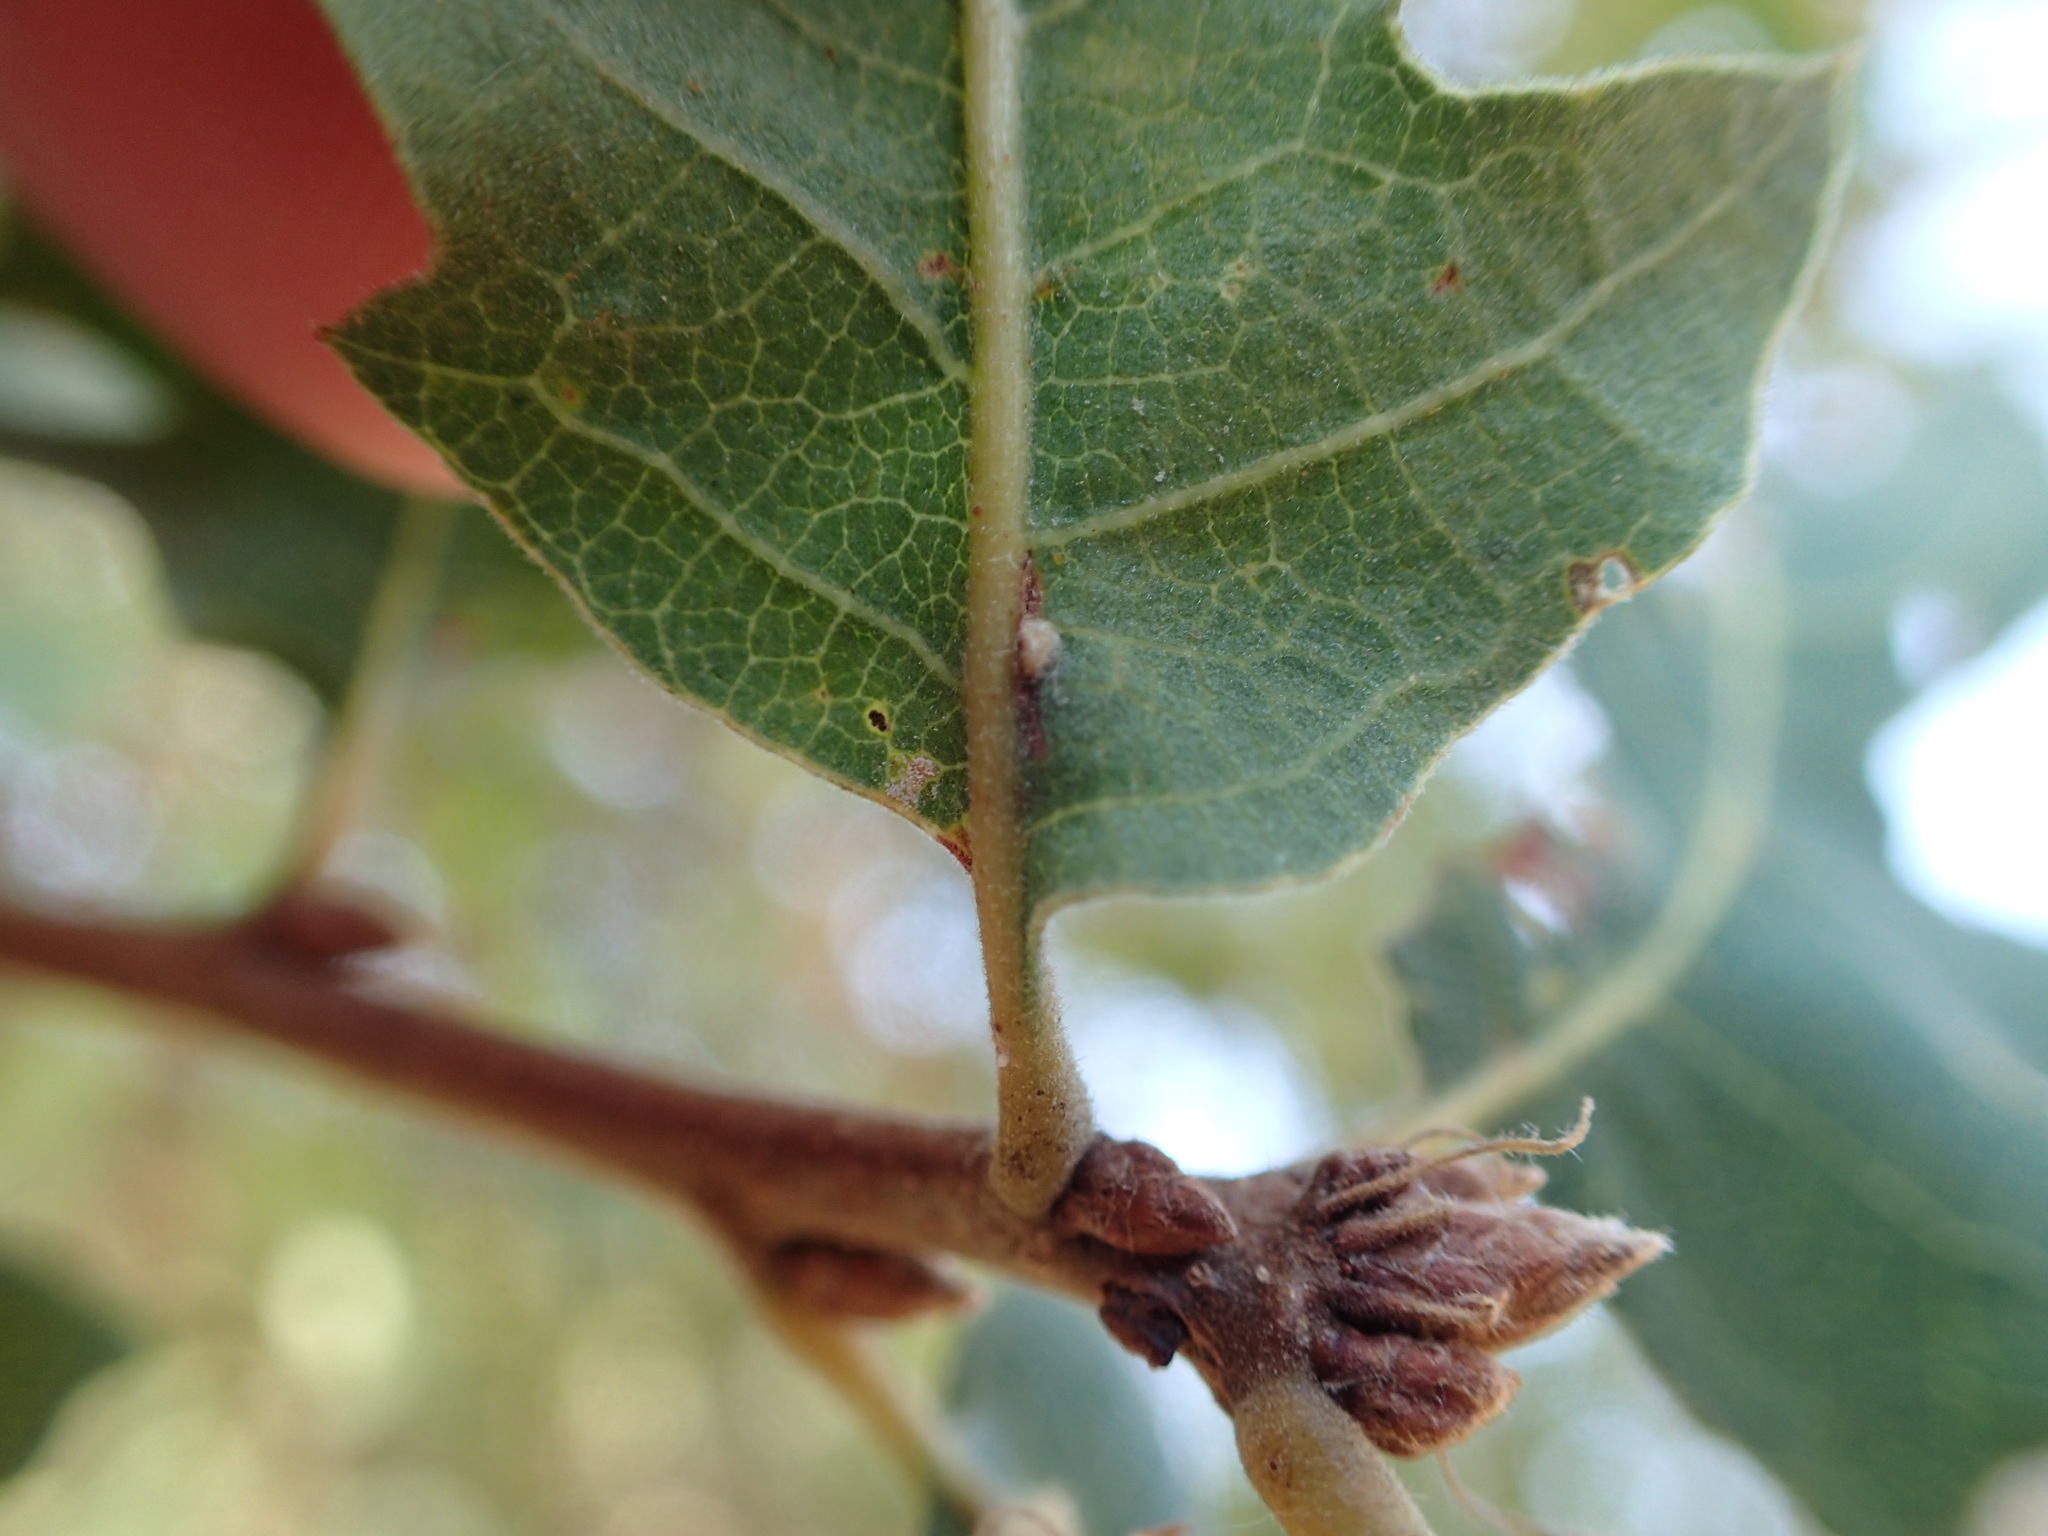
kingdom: Animalia
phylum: Arthropoda
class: Insecta
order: Hymenoptera
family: Cynipidae
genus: Andricus
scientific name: Andricus Druon fullawayi
